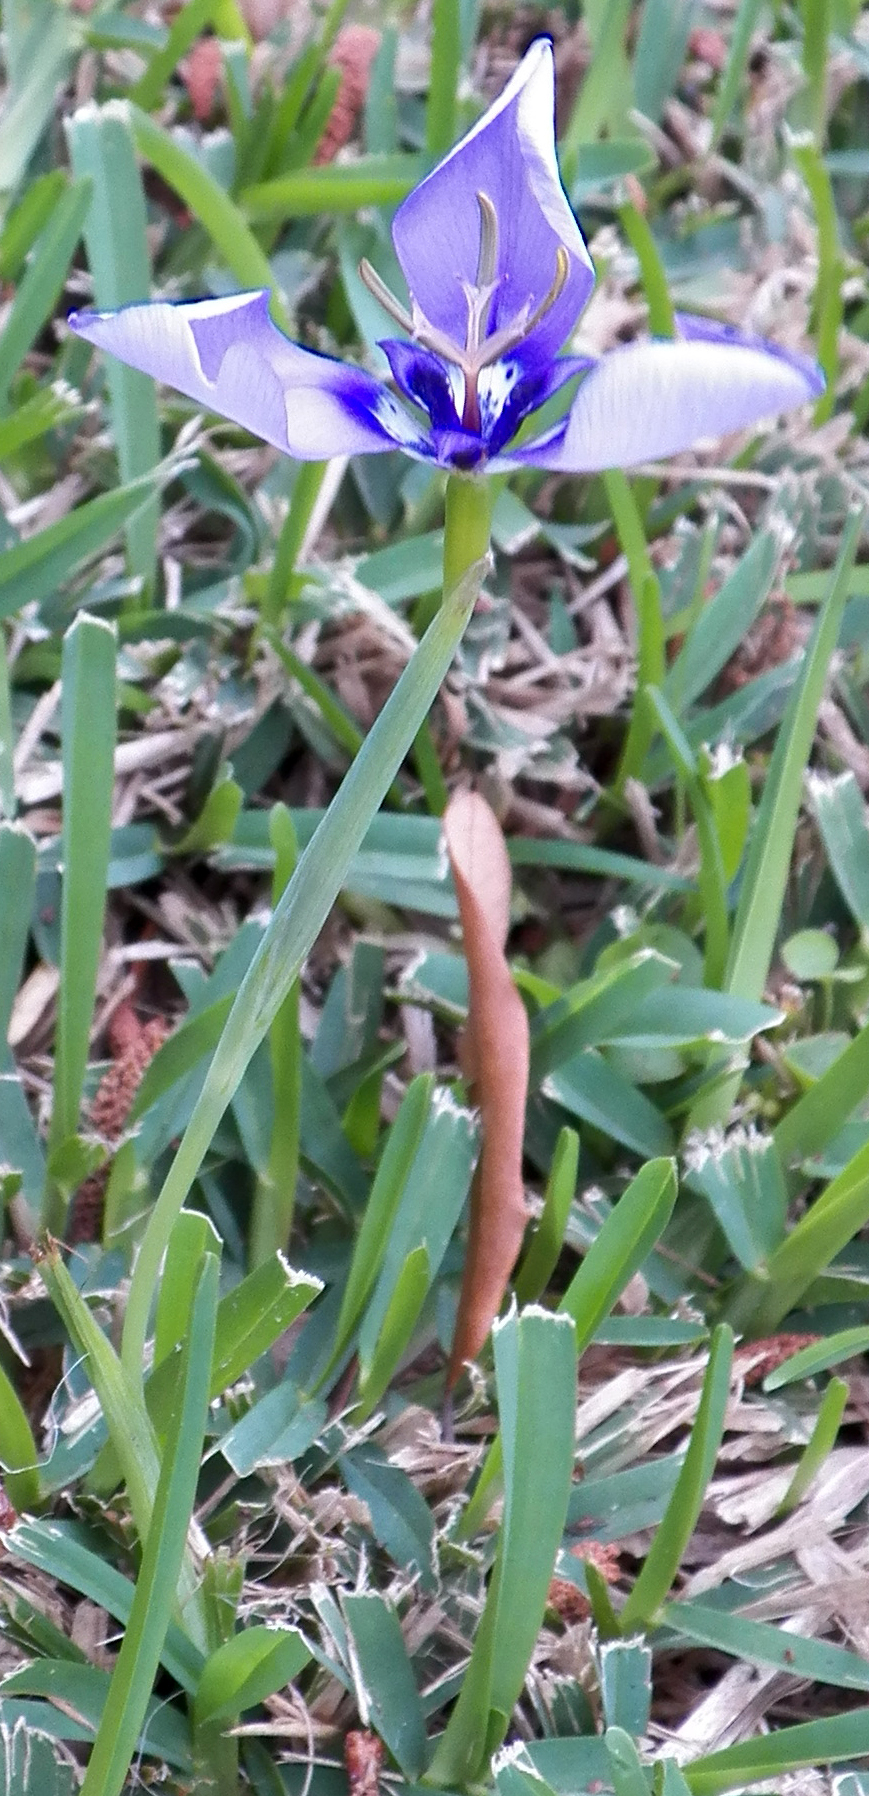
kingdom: Plantae
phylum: Tracheophyta
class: Liliopsida
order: Asparagales
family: Iridaceae
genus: Herbertia
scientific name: Herbertia lahue
